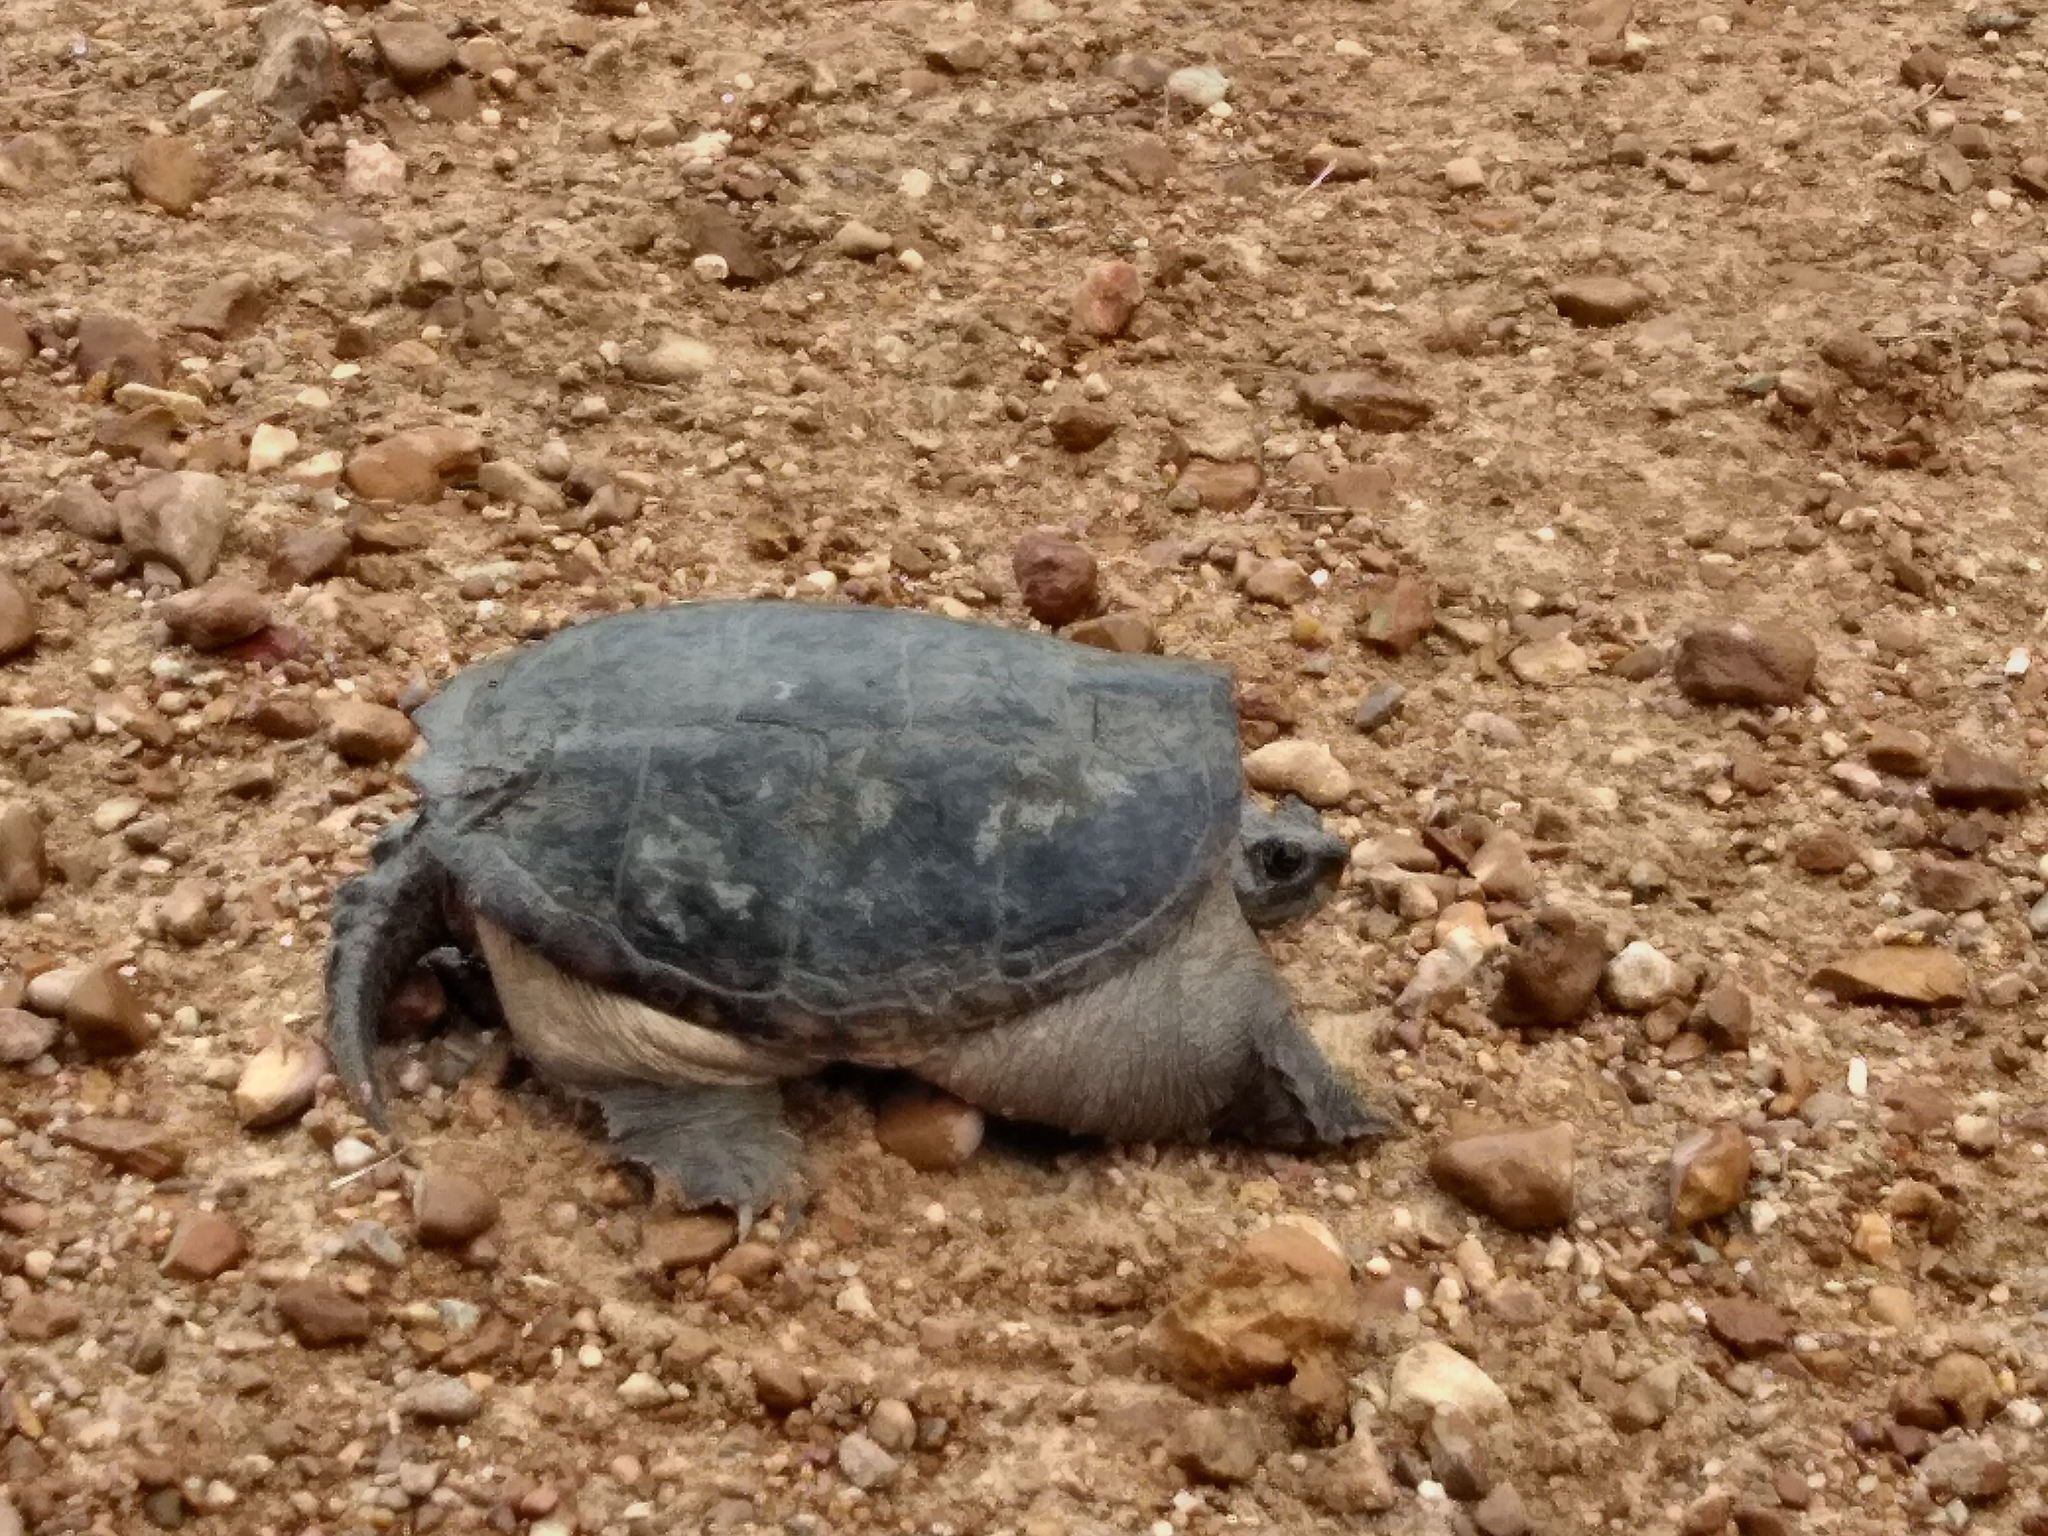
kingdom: Animalia
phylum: Chordata
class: Testudines
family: Chelydridae
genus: Chelydra
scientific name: Chelydra serpentina
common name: Common snapping turtle
